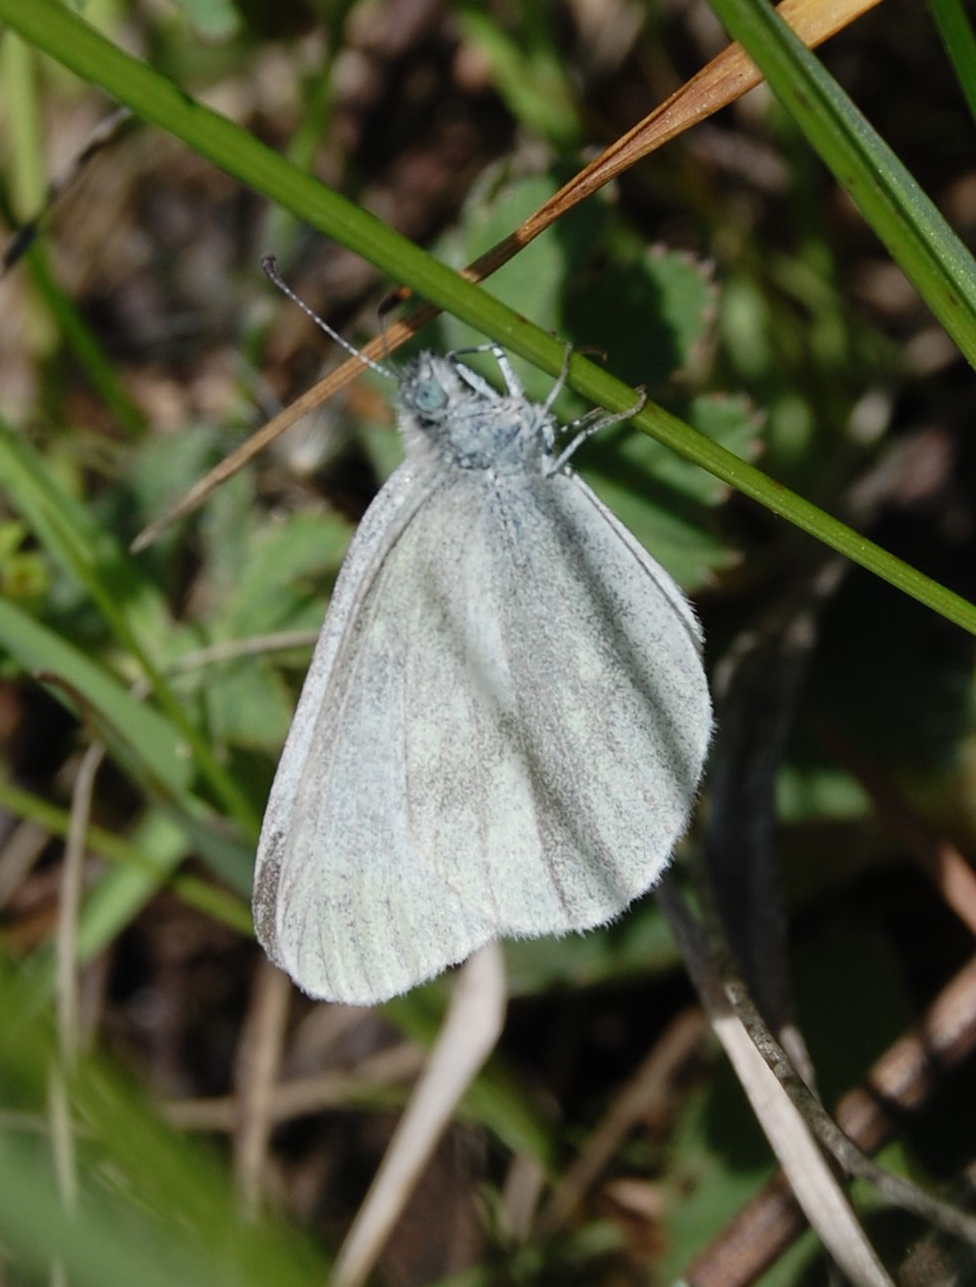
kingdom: Animalia
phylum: Arthropoda
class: Insecta
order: Lepidoptera
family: Pieridae
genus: Leptidea
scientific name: Leptidea
